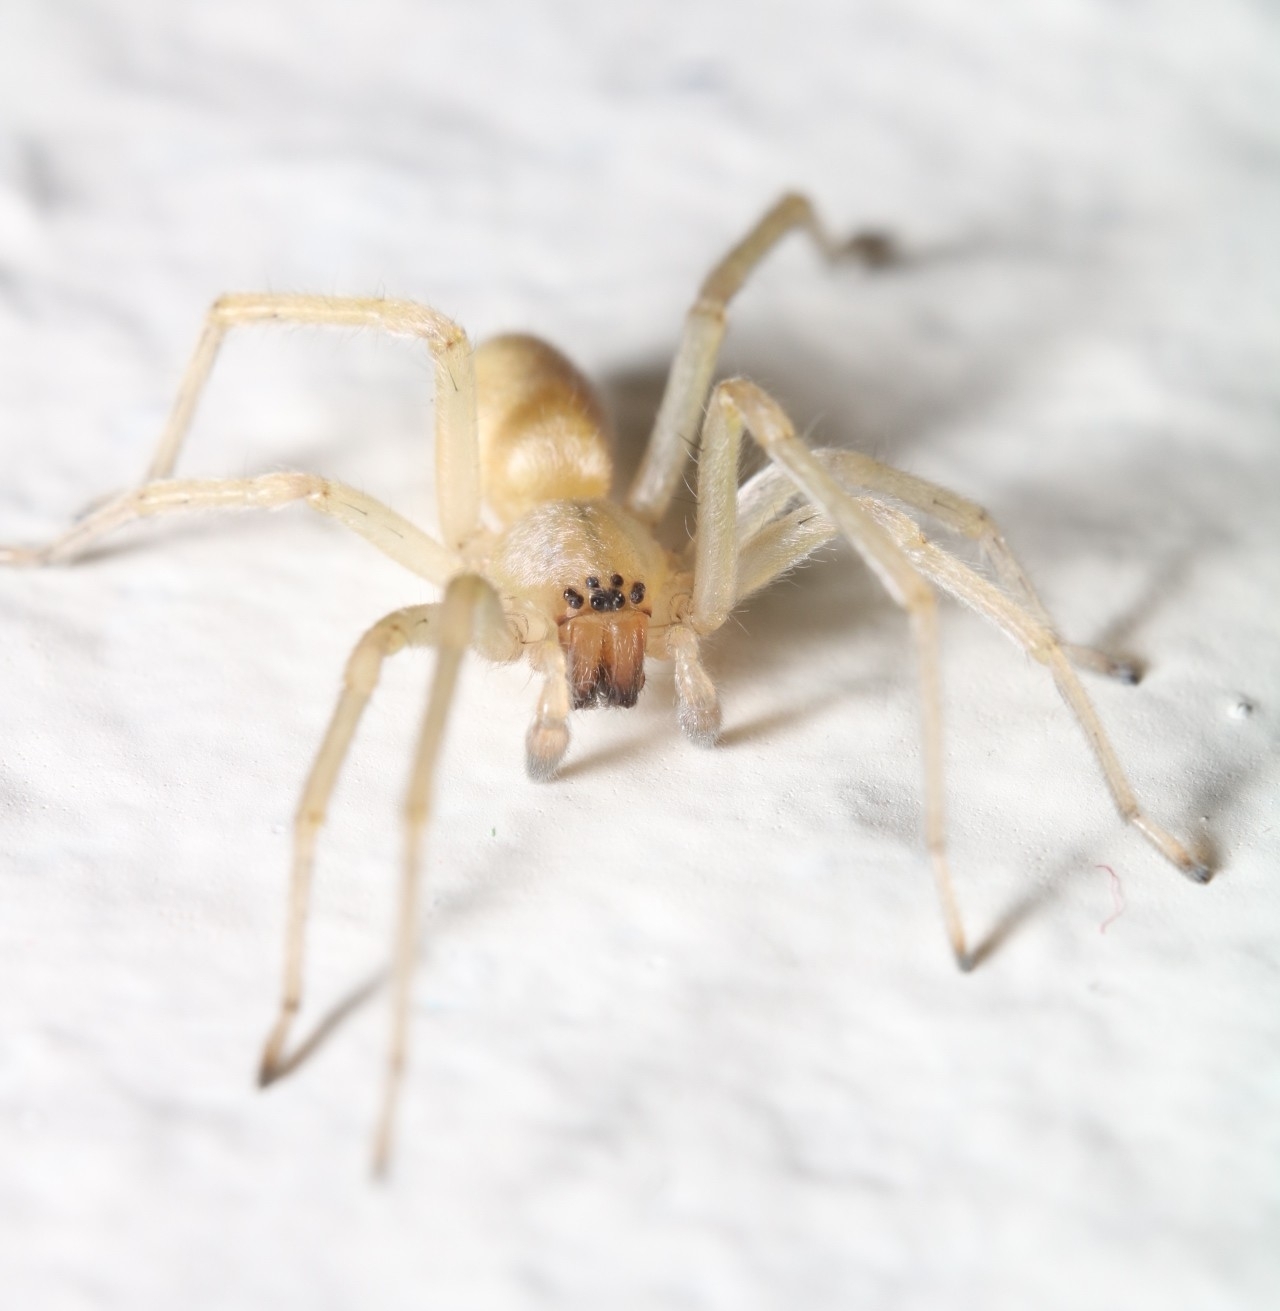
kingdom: Animalia
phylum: Arthropoda
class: Arachnida
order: Araneae
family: Cheiracanthiidae
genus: Cheiracanthium
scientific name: Cheiracanthium mildei
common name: Northern yellow sac spider
